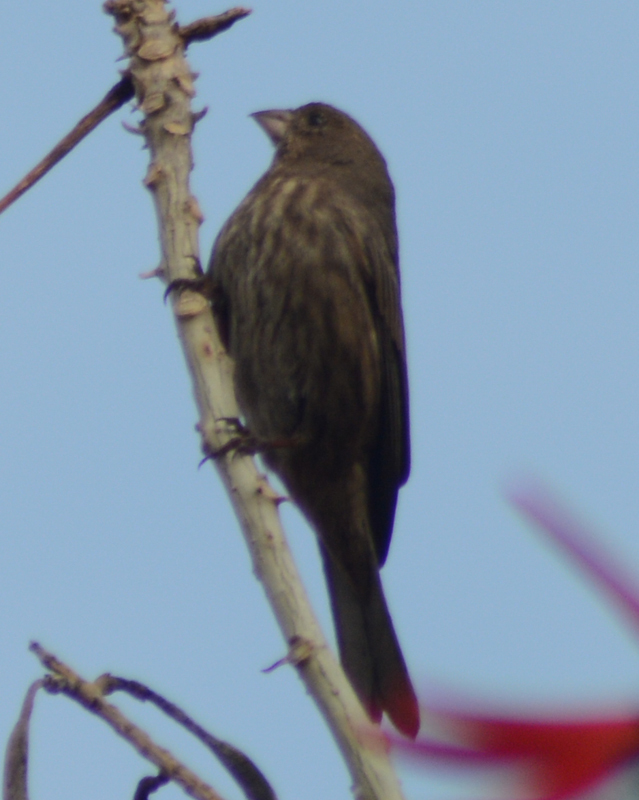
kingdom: Animalia
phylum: Chordata
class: Aves
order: Passeriformes
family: Fringillidae
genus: Haemorhous
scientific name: Haemorhous mexicanus
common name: House finch
